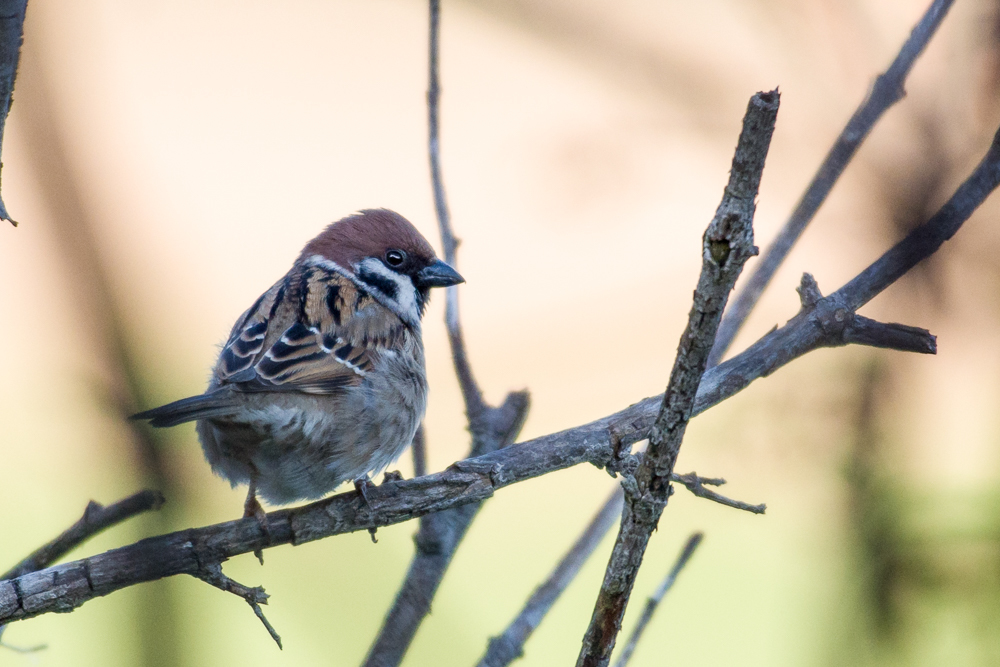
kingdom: Animalia
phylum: Chordata
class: Aves
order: Passeriformes
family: Passeridae
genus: Passer
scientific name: Passer montanus
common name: Eurasian tree sparrow
